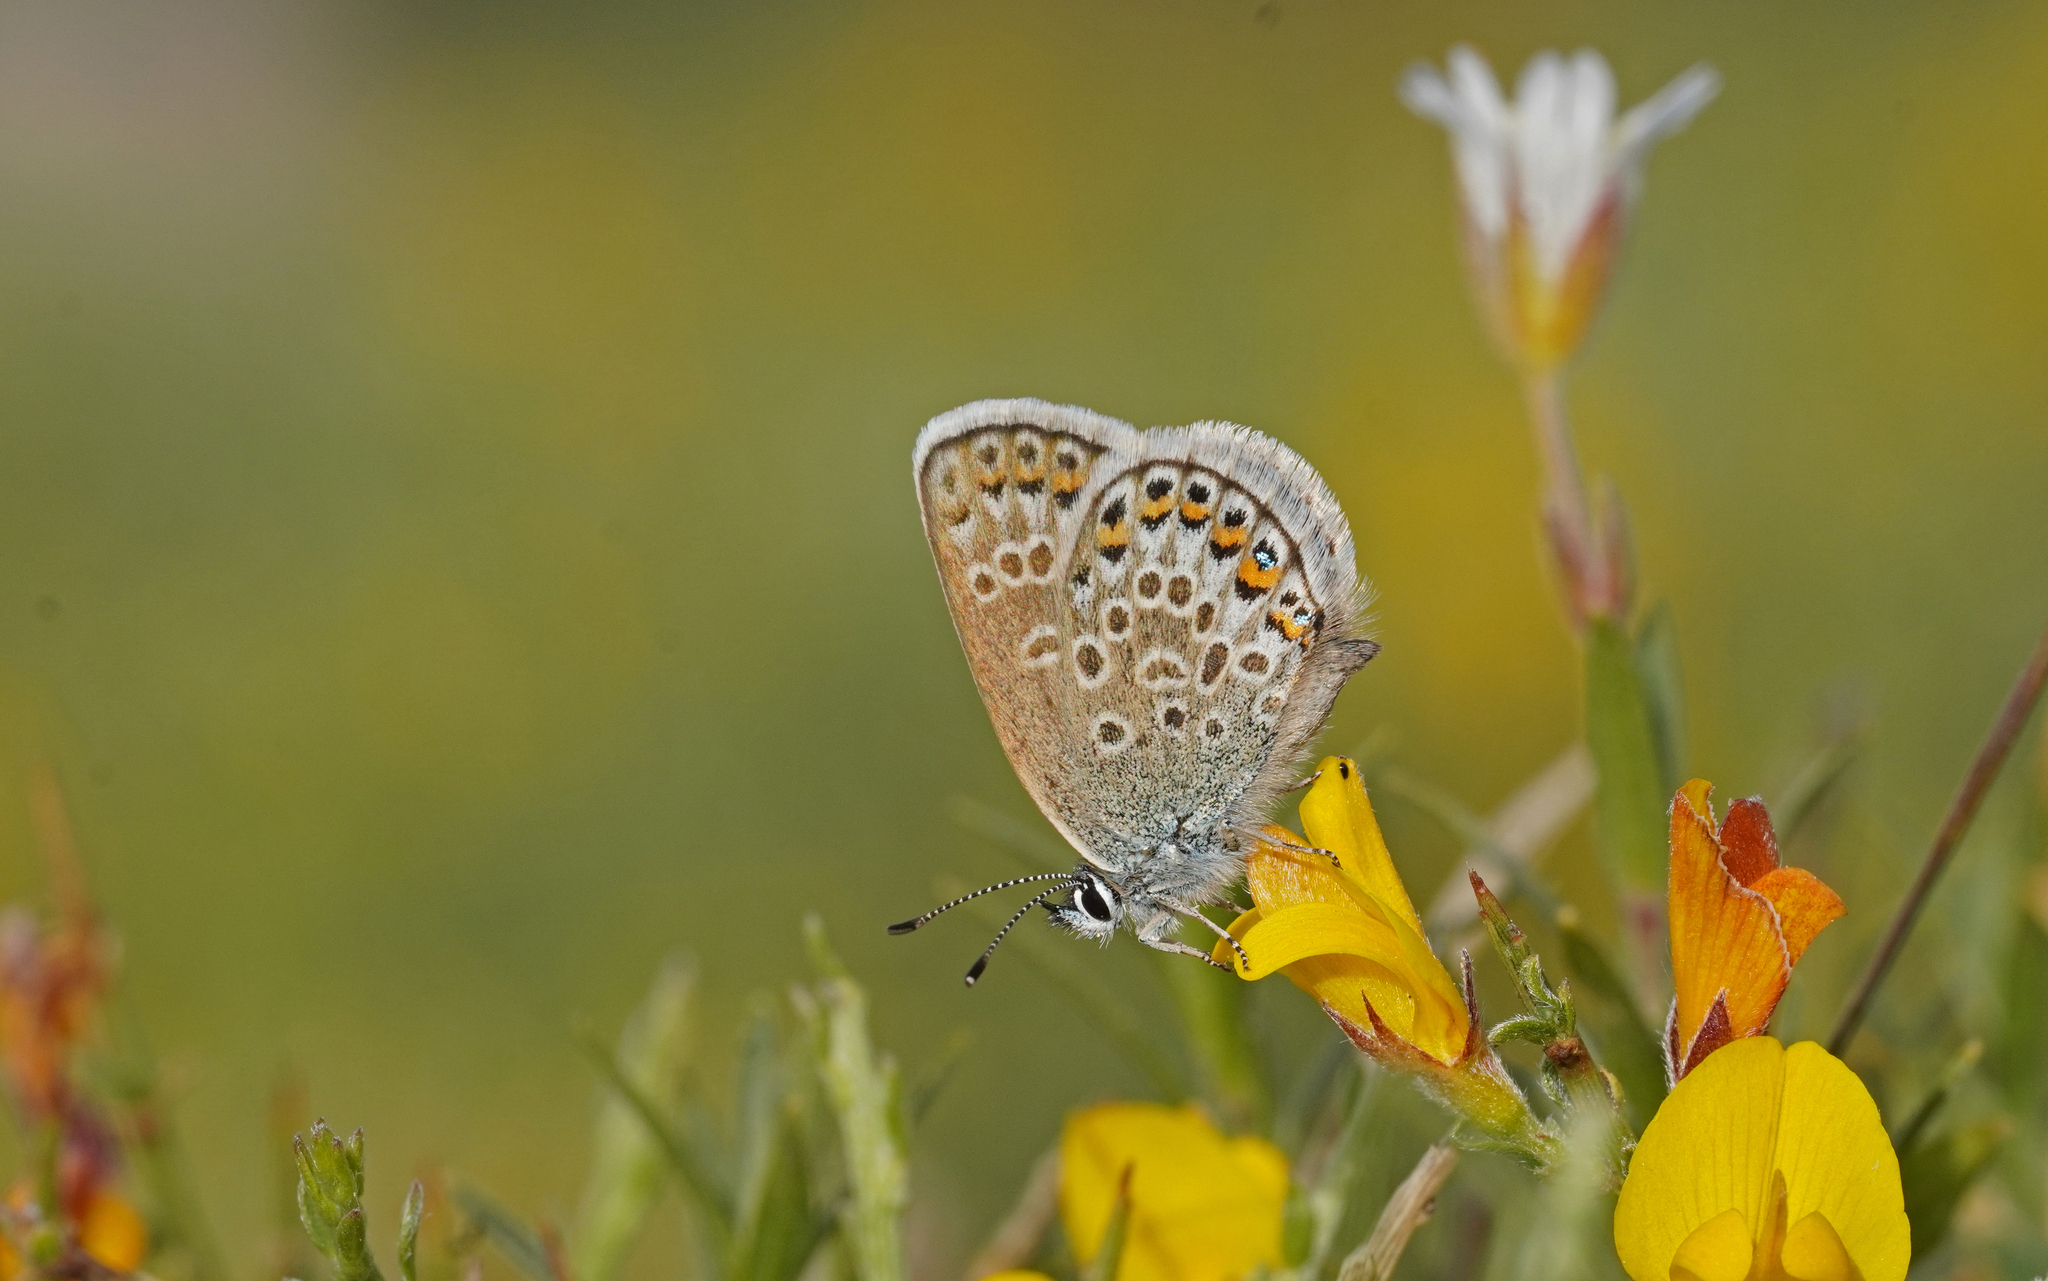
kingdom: Animalia
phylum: Arthropoda
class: Insecta
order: Lepidoptera
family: Lycaenidae
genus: Plebejus
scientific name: Plebejus argus
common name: Silver-studded blue
